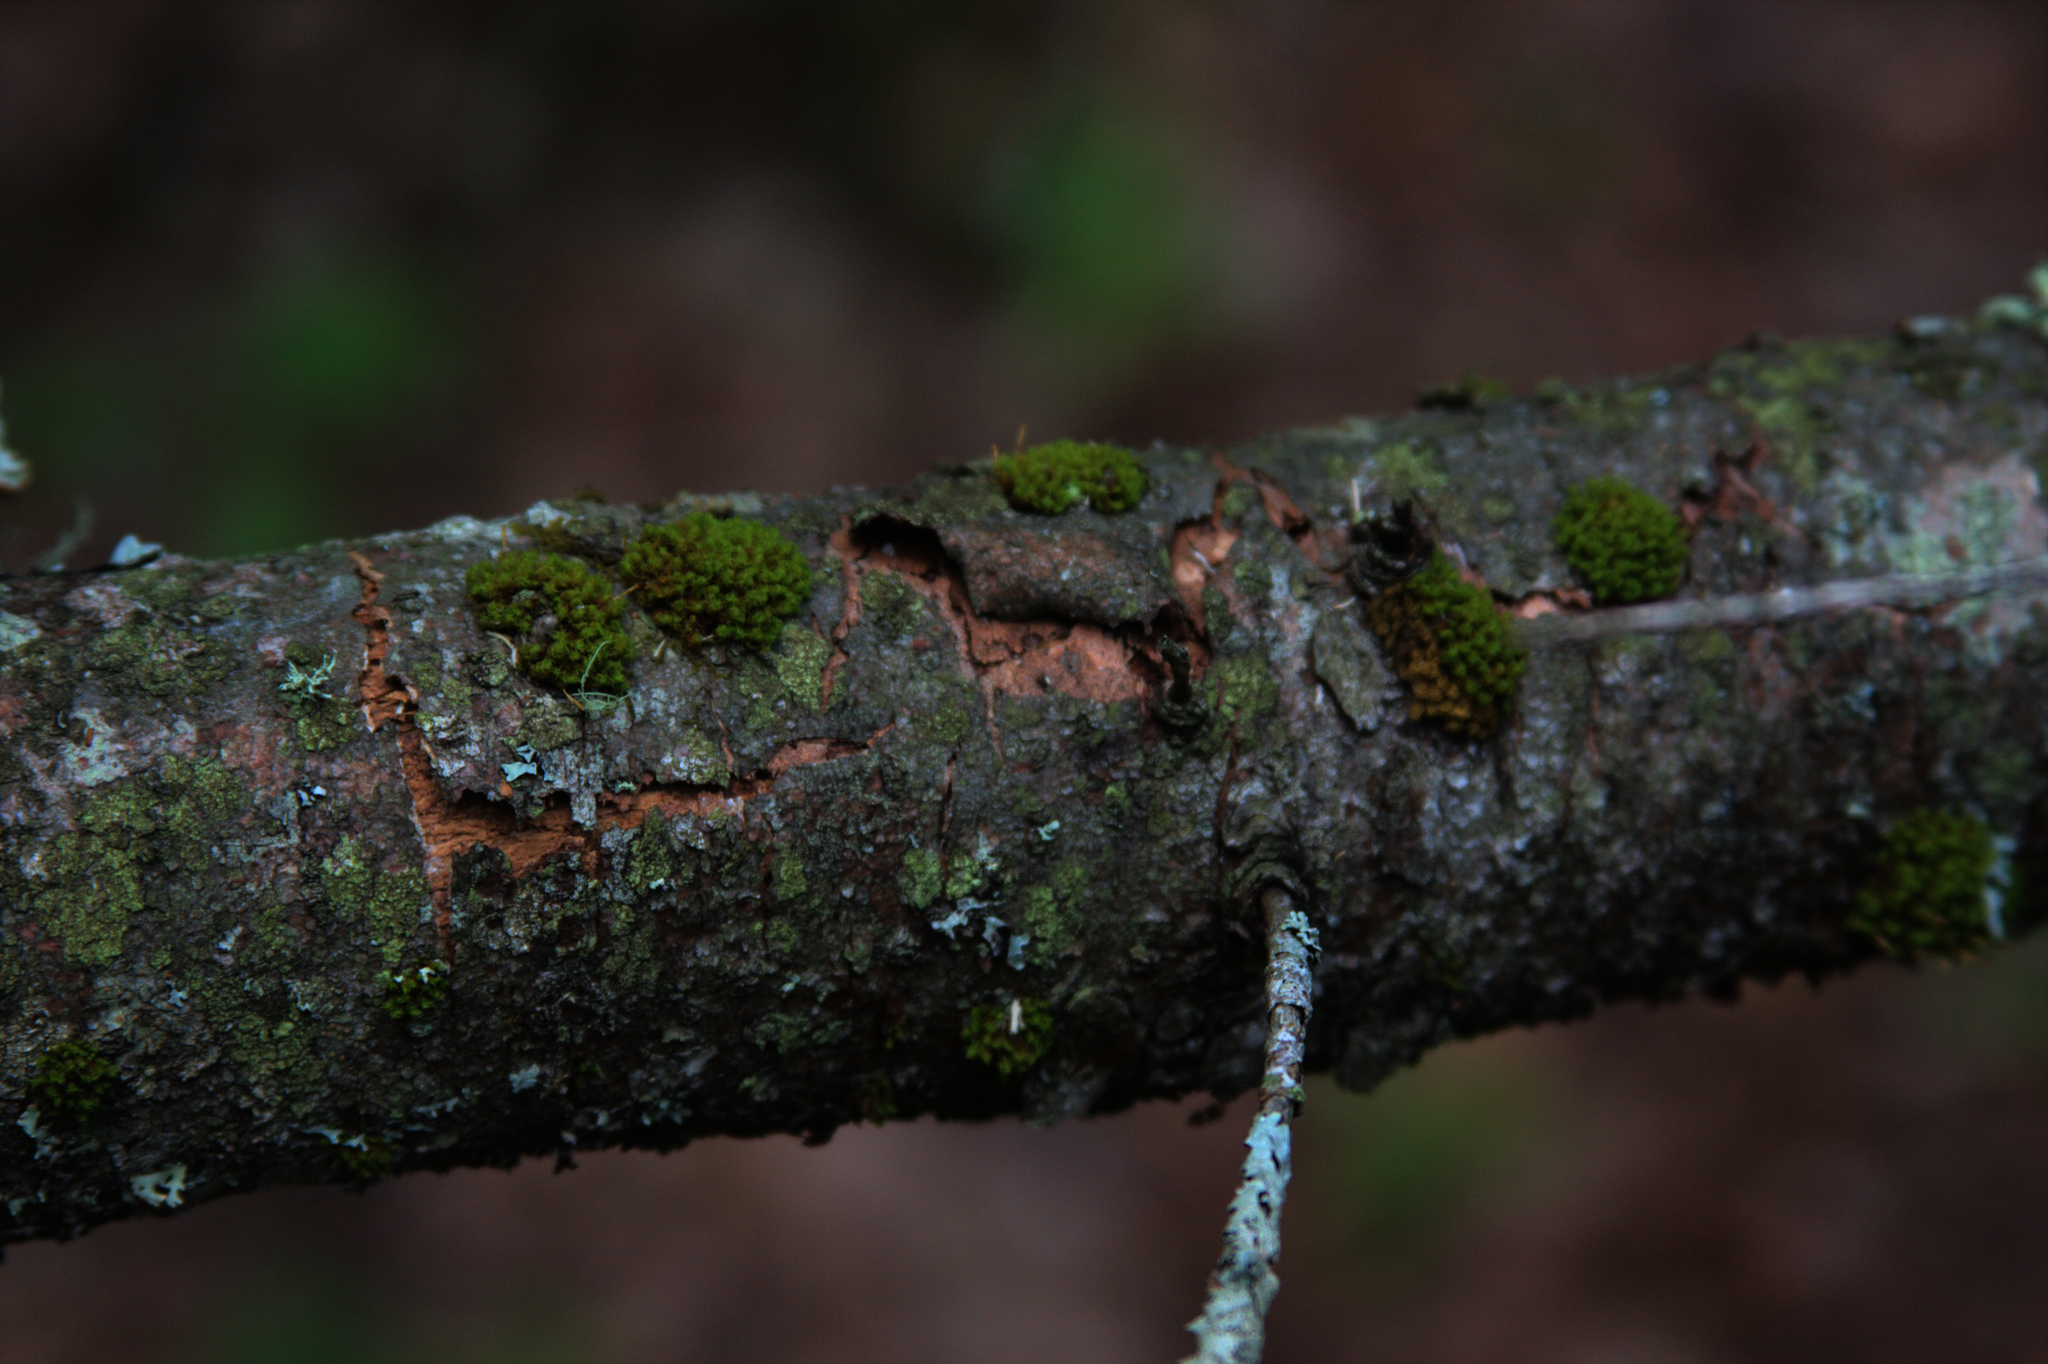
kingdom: Plantae
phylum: Bryophyta
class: Bryopsida
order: Orthotrichales
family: Orthotrichaceae
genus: Ulota
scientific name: Ulota crispa
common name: Crisped pincushion moss
